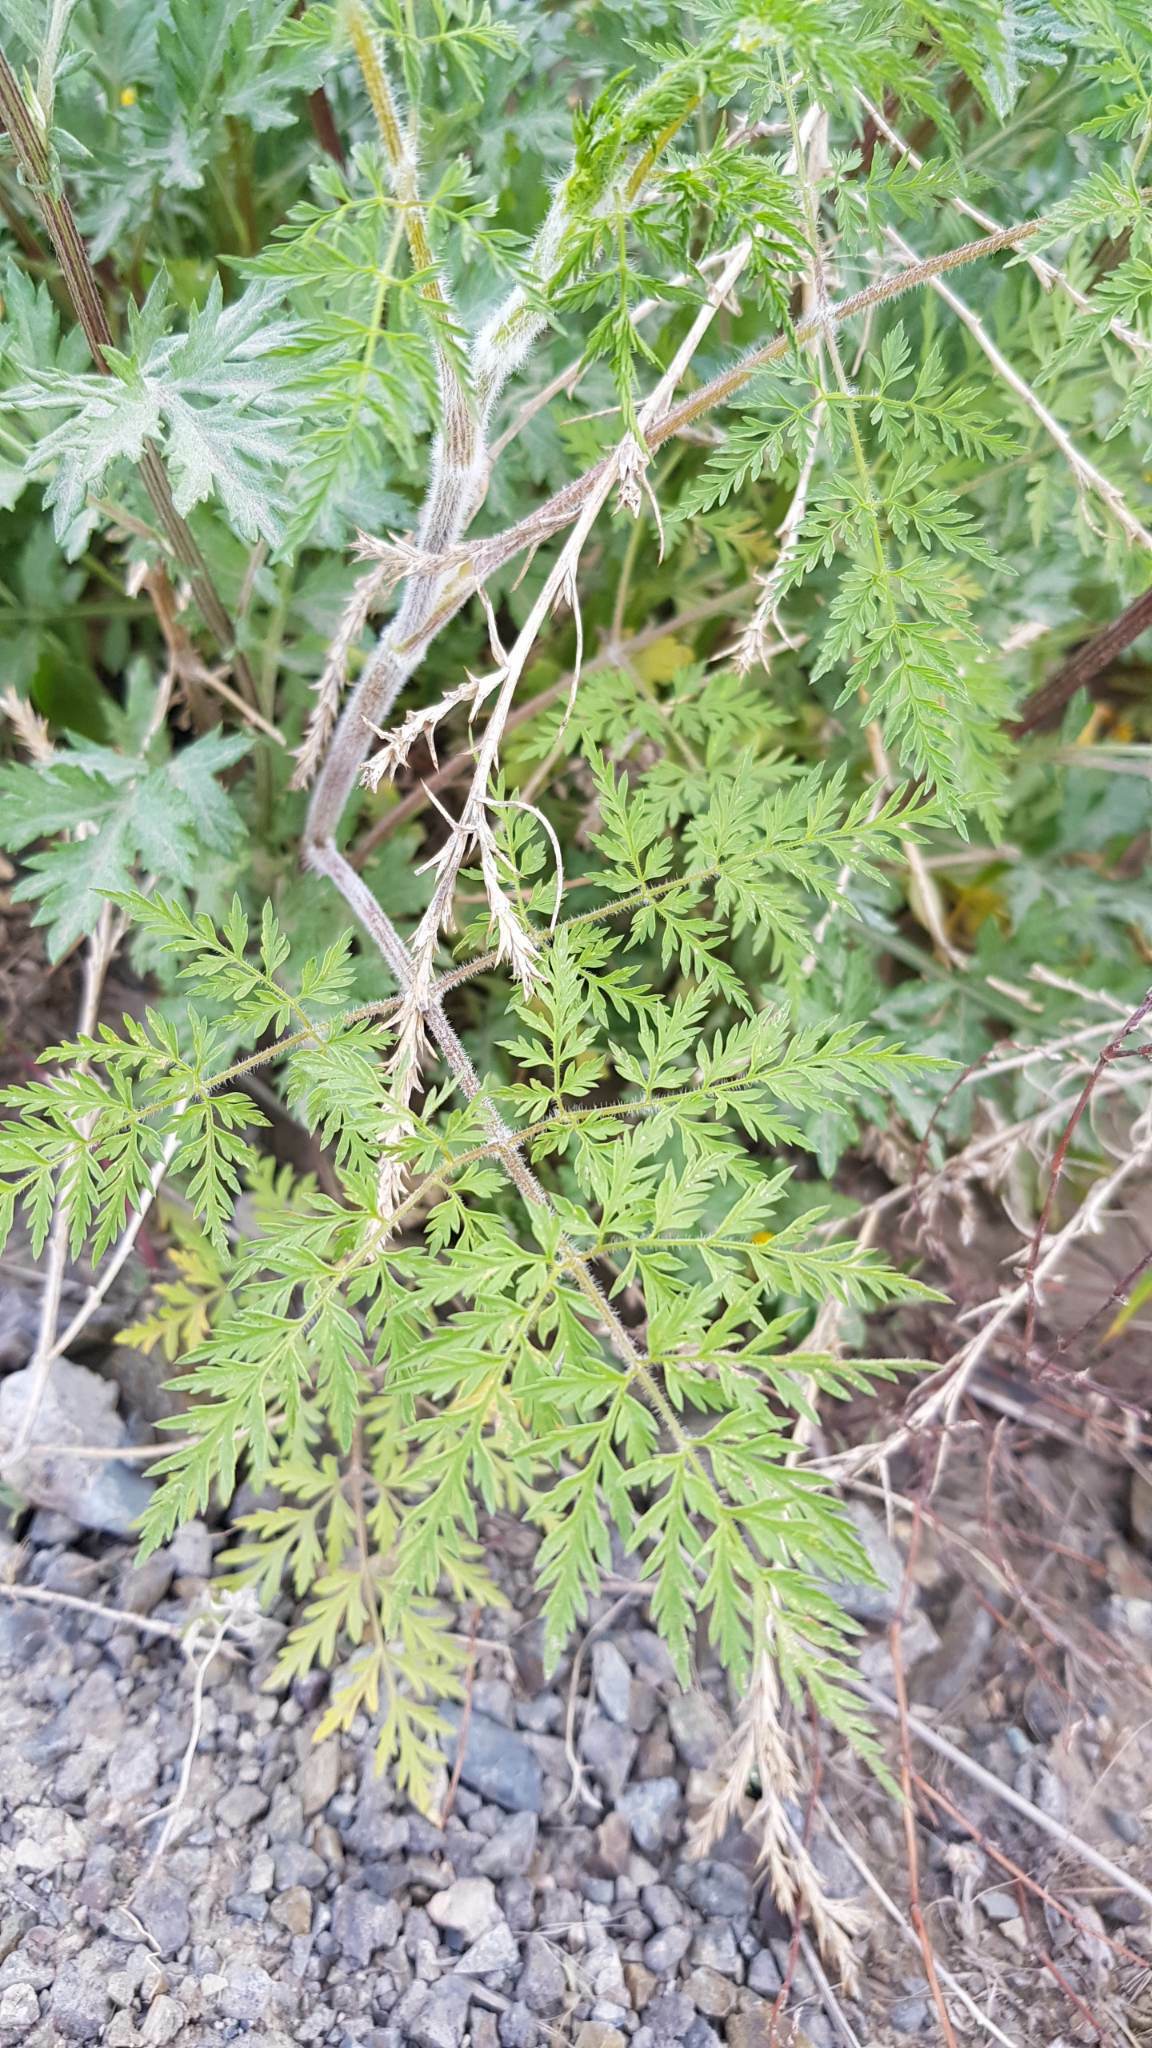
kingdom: Plantae
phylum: Tracheophyta
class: Magnoliopsida
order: Apiales
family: Apiaceae
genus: Sphallerocarpus
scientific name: Sphallerocarpus gracilis
